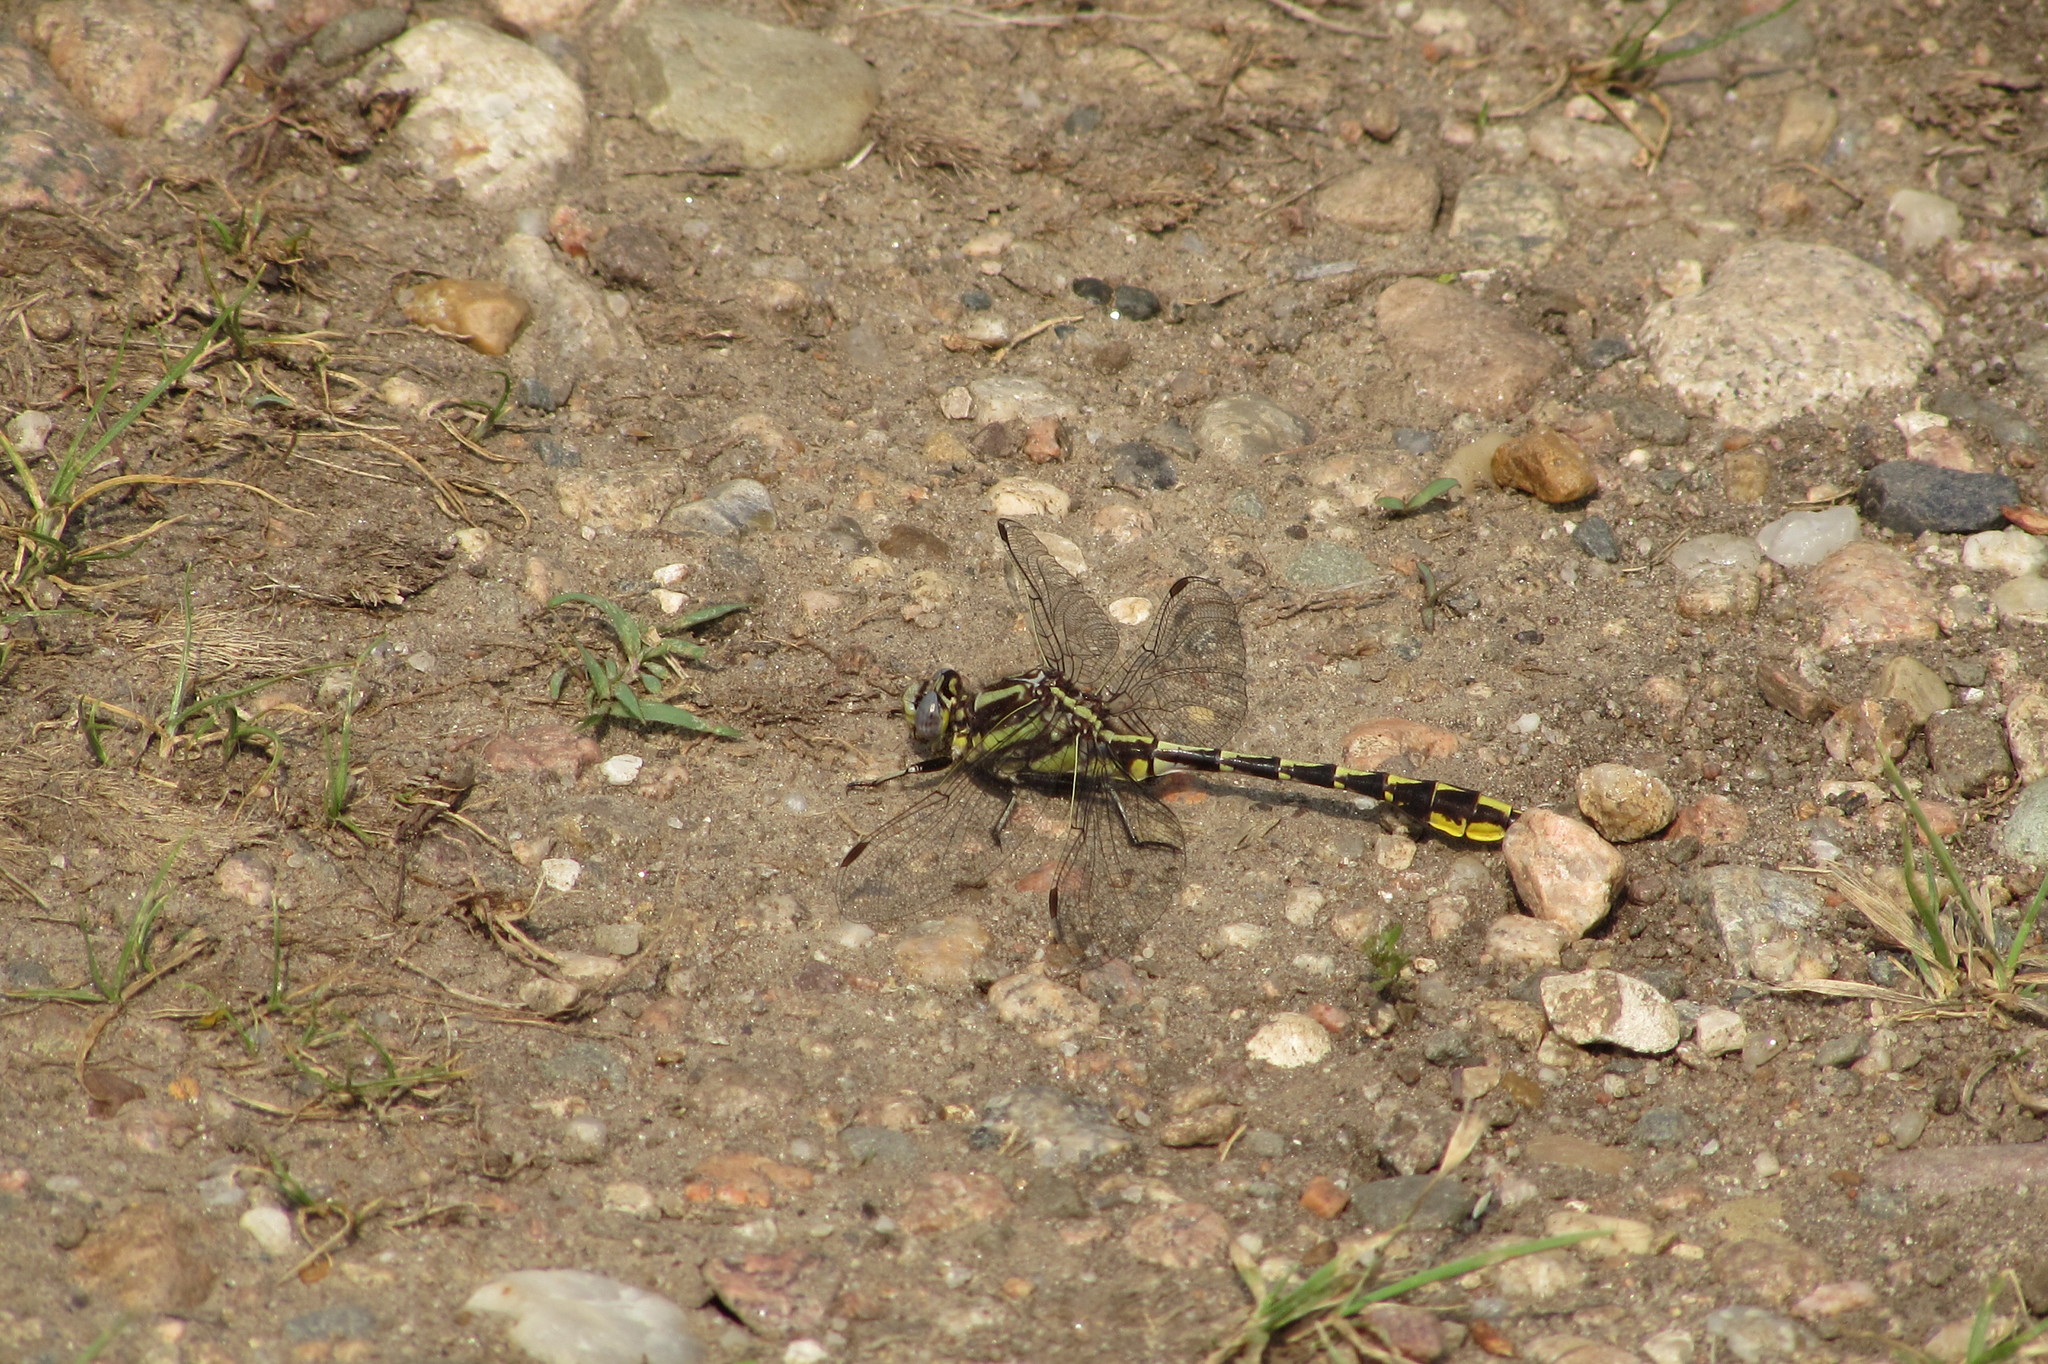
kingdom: Animalia
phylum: Arthropoda
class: Insecta
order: Odonata
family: Gomphidae
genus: Phanogomphus
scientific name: Phanogomphus graslinellus
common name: Pronghorn clubtail
